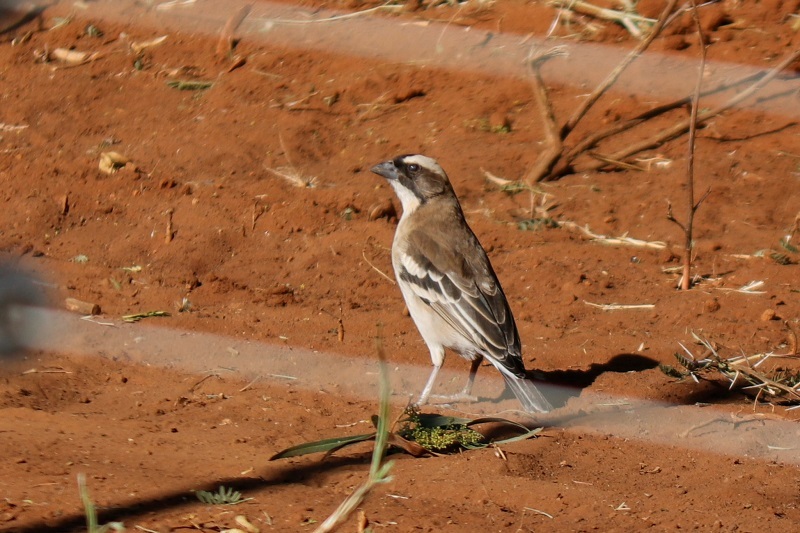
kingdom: Animalia
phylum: Chordata
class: Aves
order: Passeriformes
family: Passeridae
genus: Plocepasser
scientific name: Plocepasser mahali
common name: White-browed sparrow-weaver
